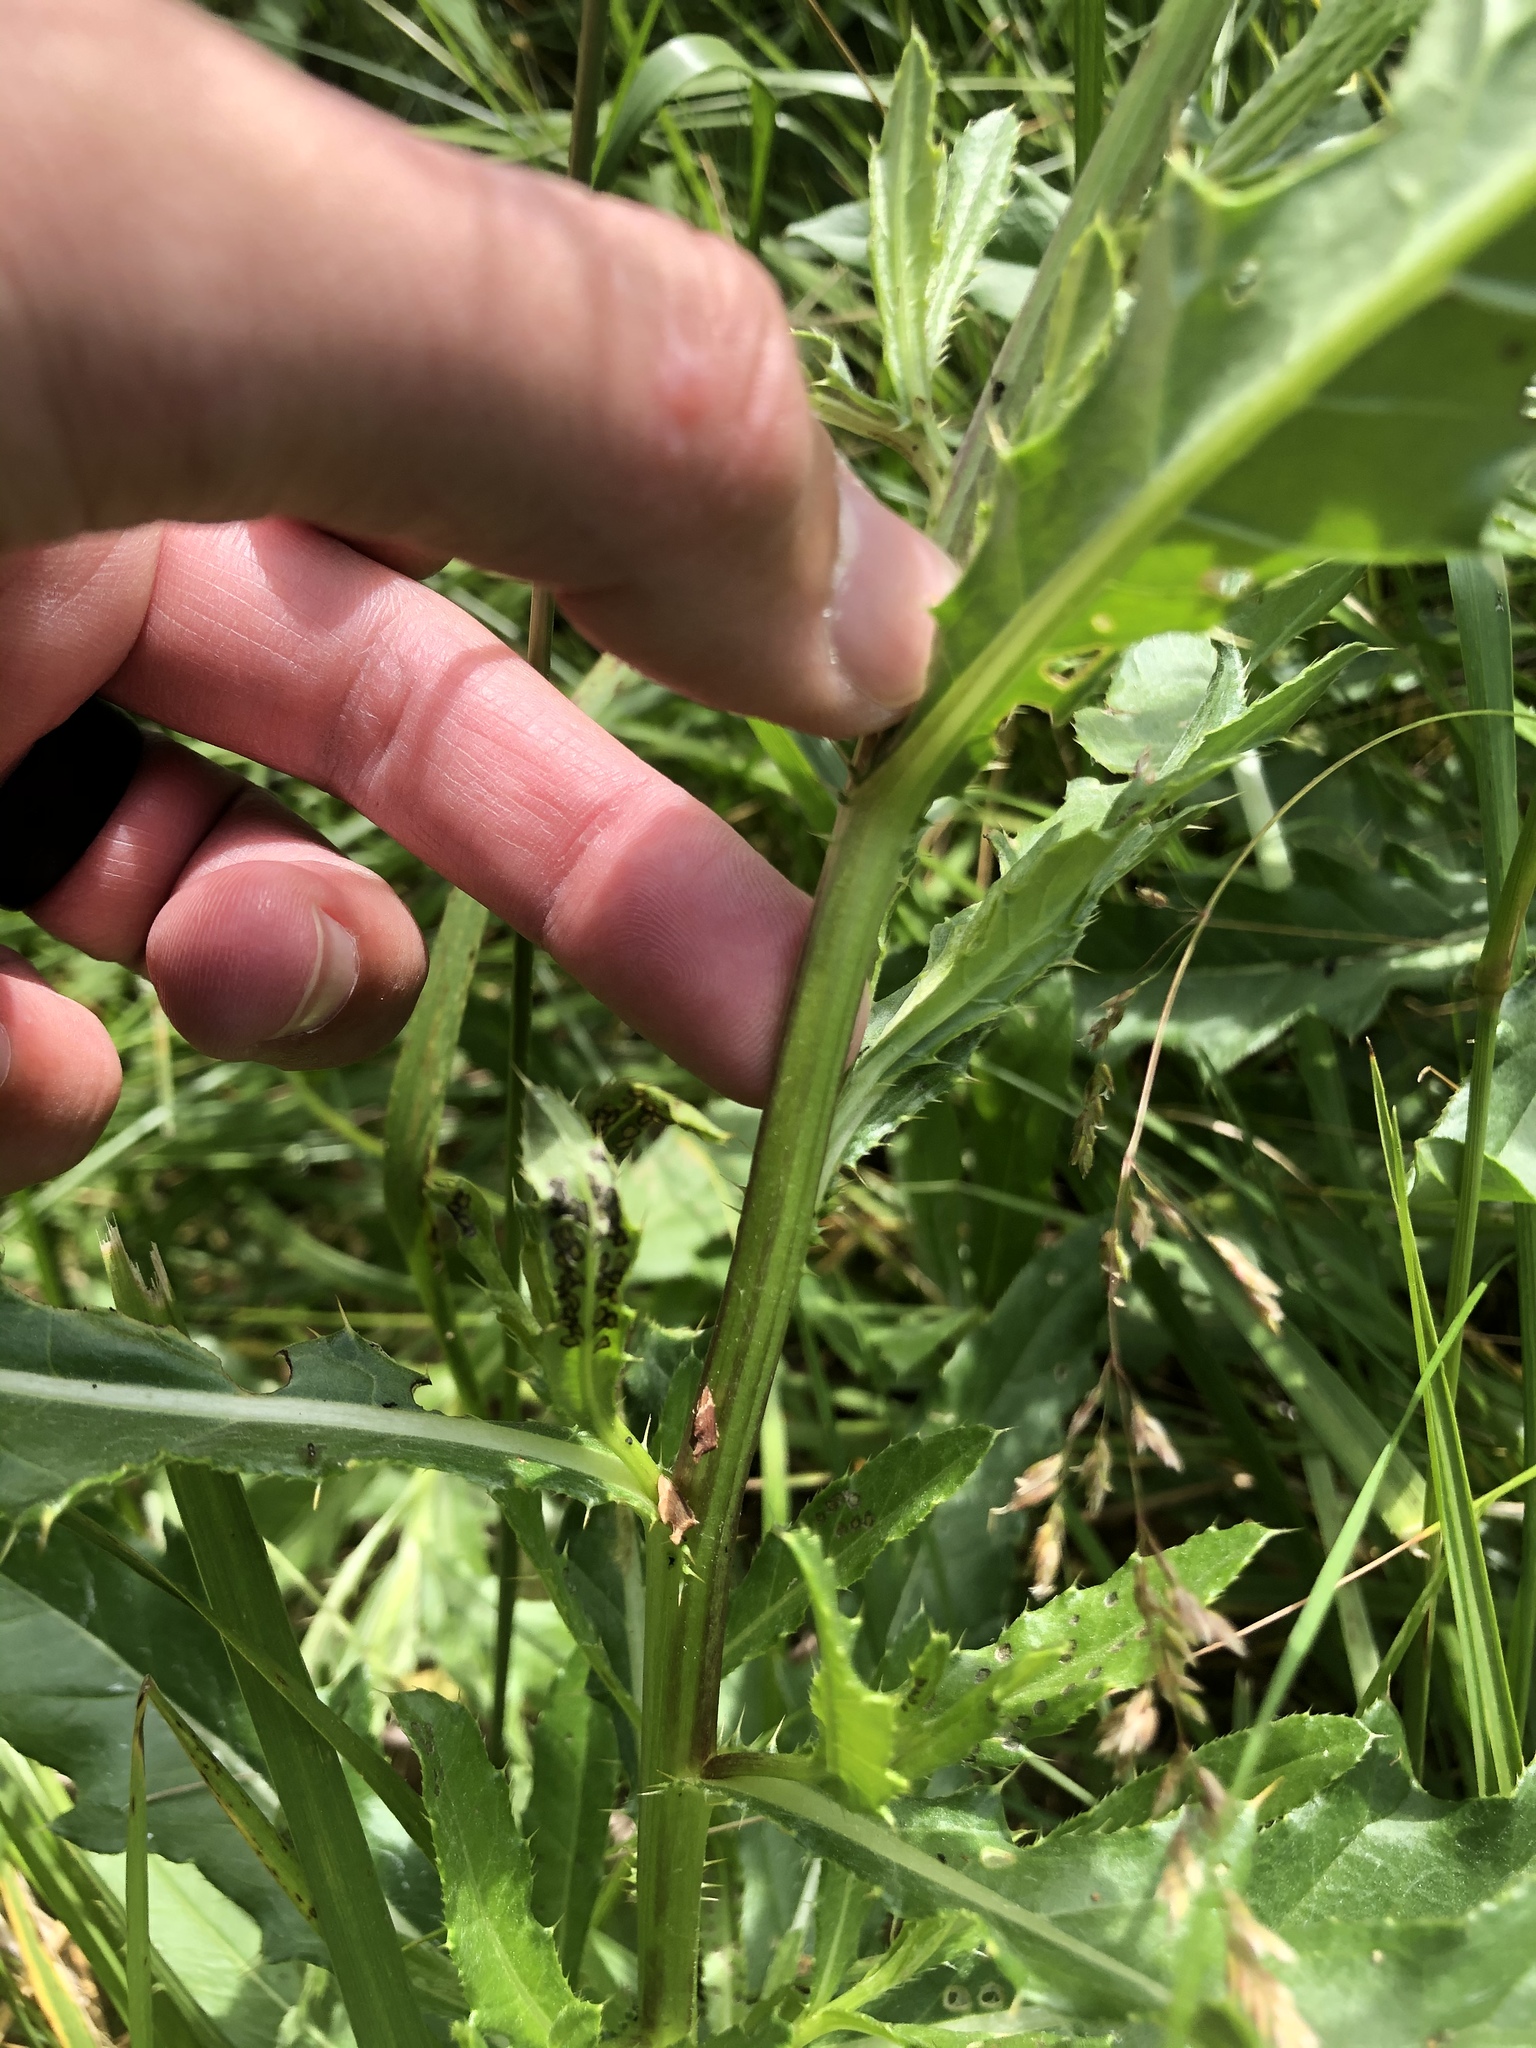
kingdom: Animalia
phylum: Arthropoda
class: Insecta
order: Hemiptera
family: Membracidae
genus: Entylia
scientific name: Entylia carinata
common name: Keeled treehopper
